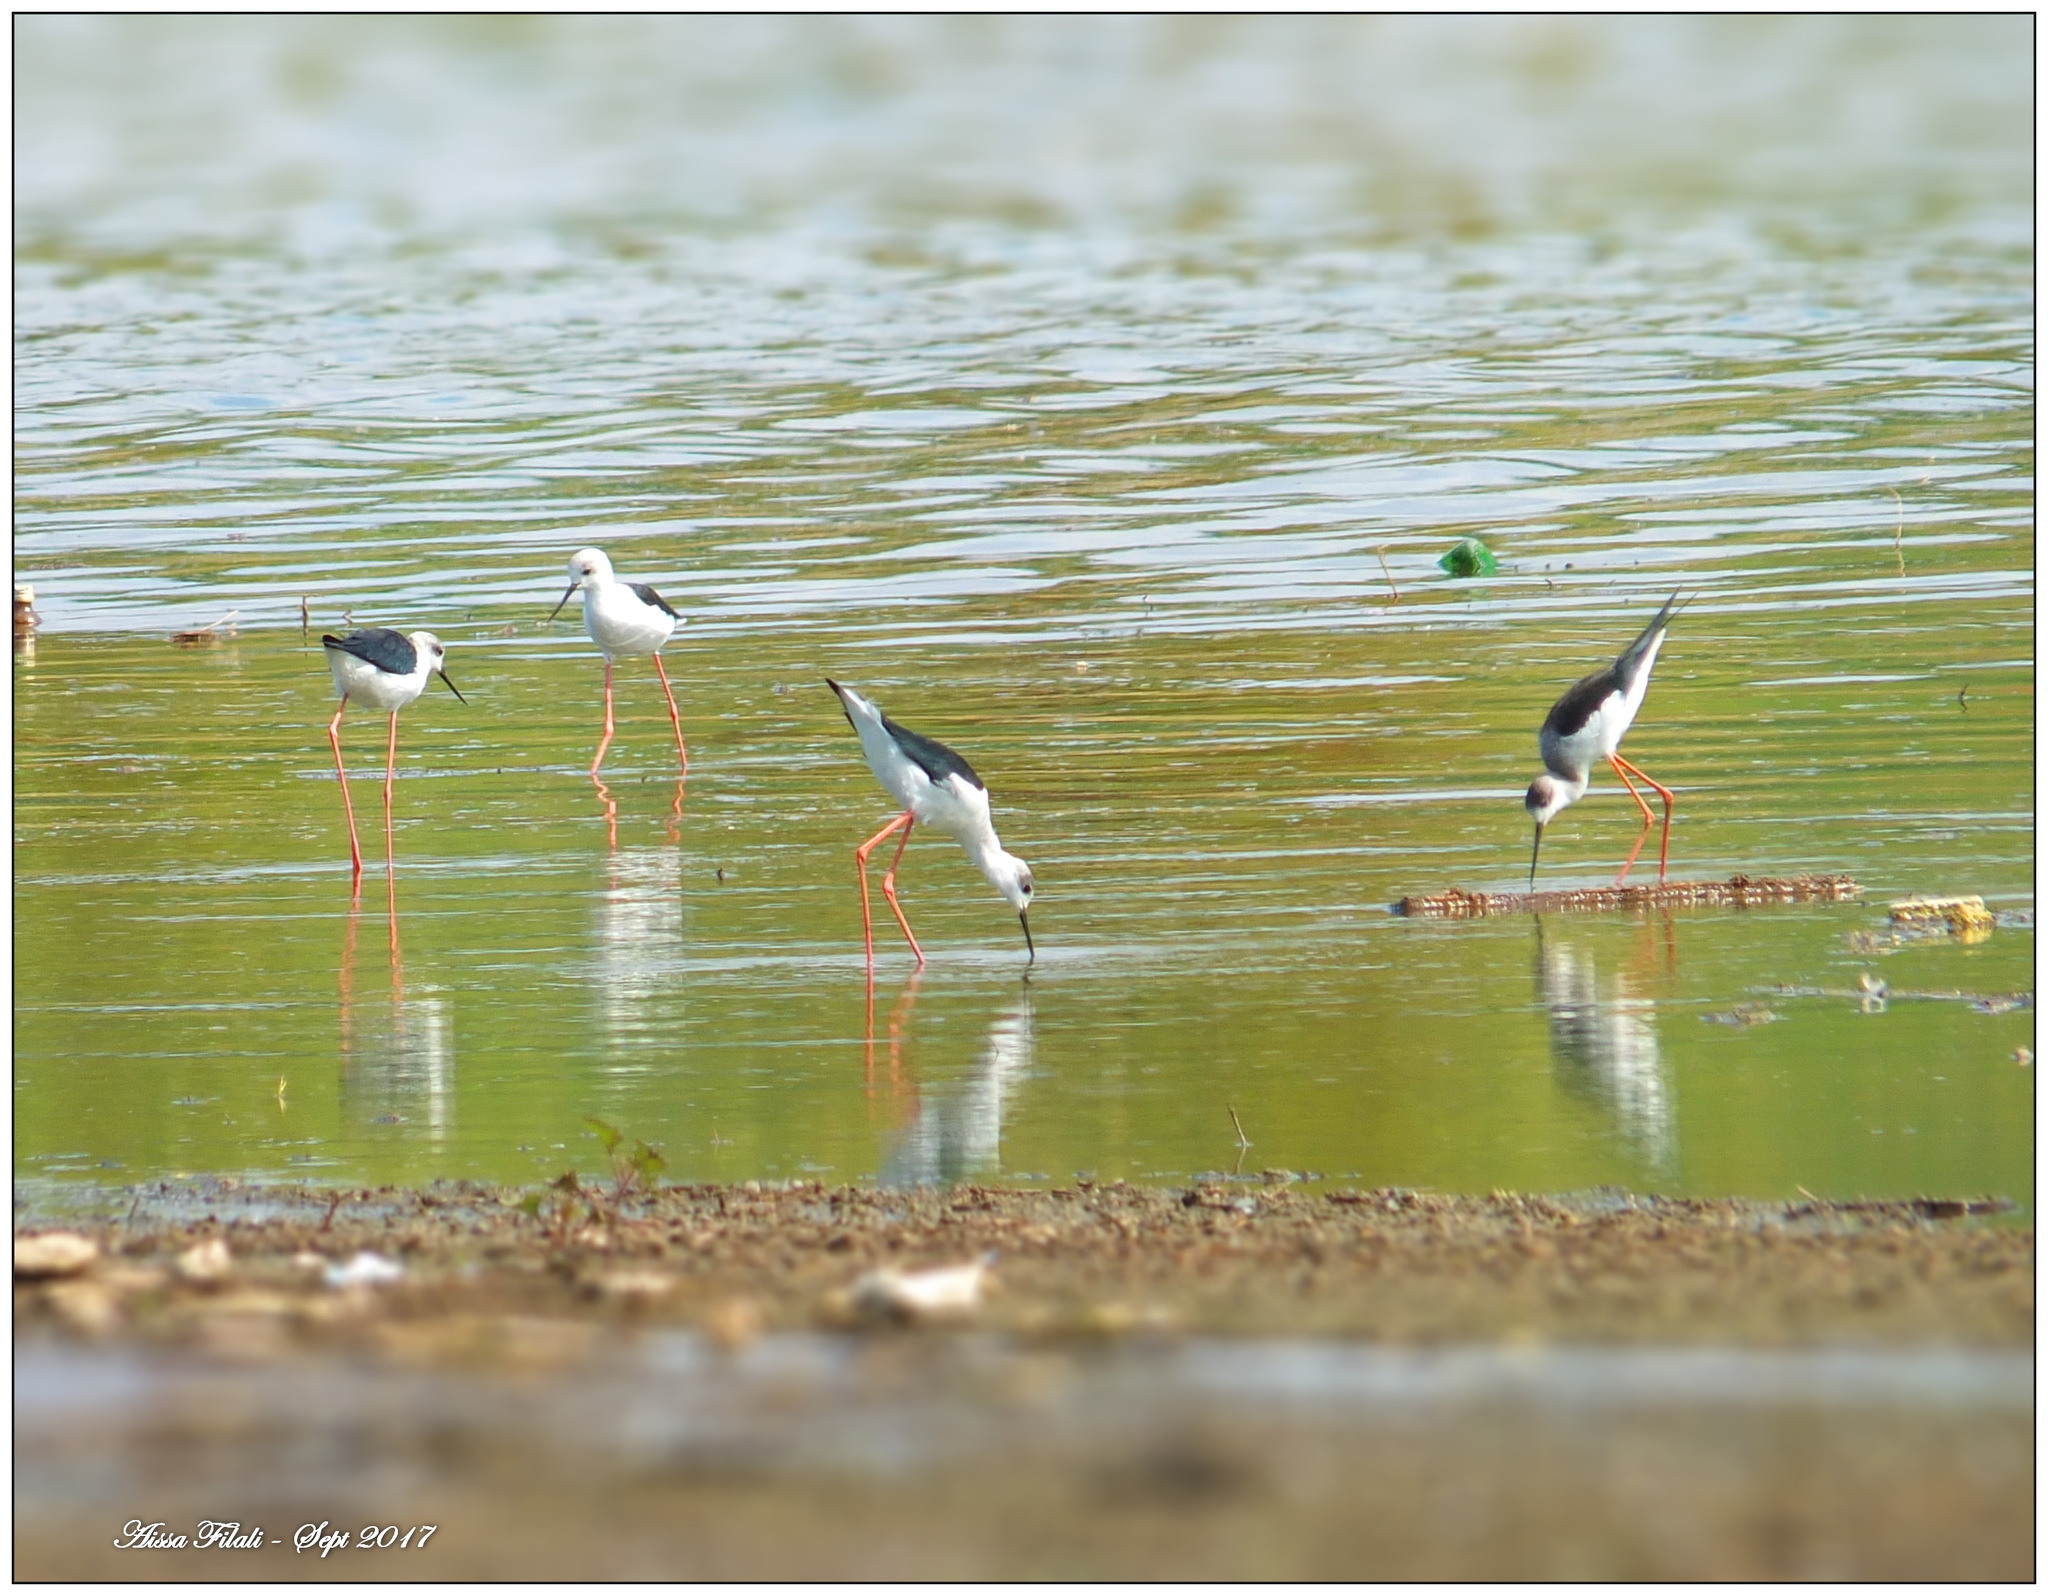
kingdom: Animalia
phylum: Chordata
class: Aves
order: Charadriiformes
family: Recurvirostridae
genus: Himantopus
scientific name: Himantopus himantopus
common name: Black-winged stilt
